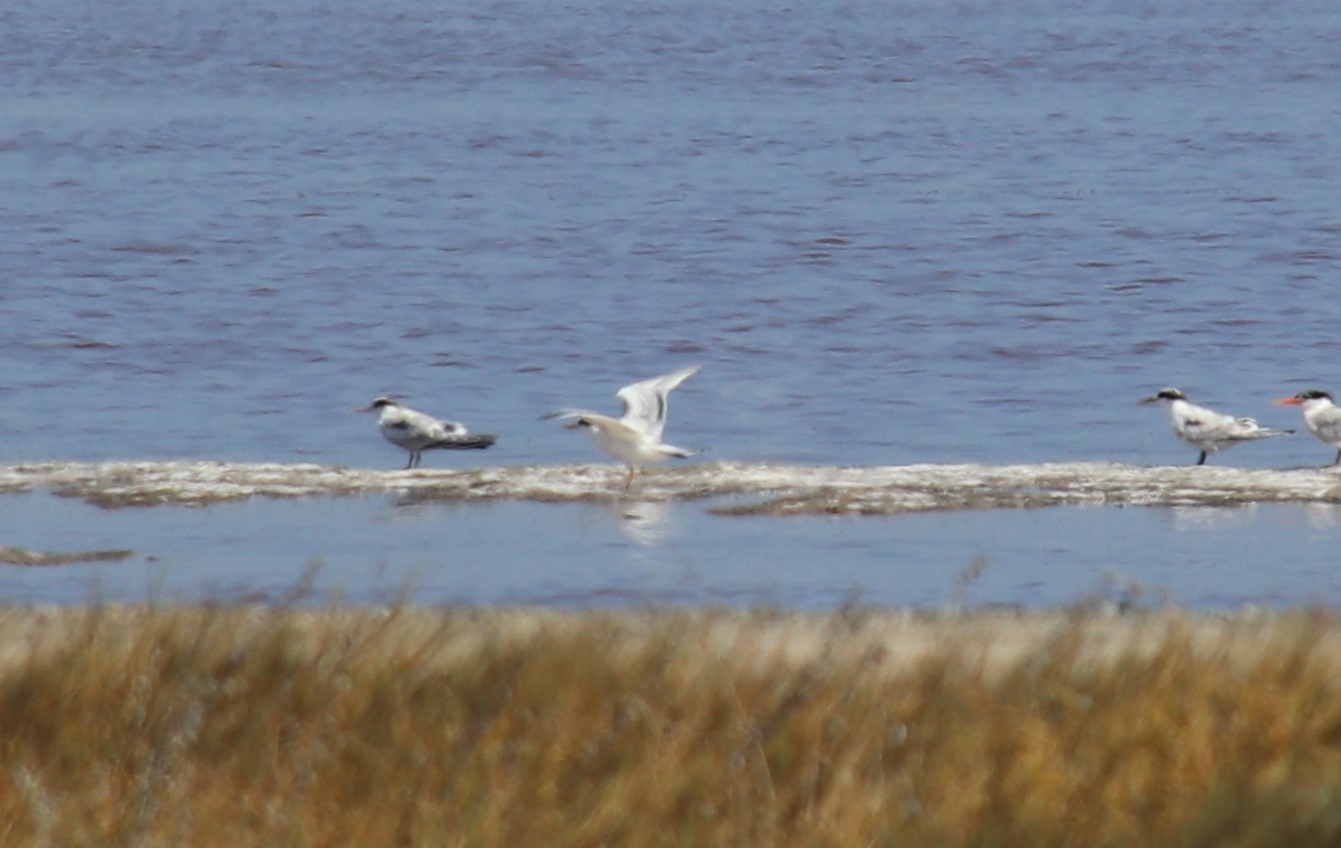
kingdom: Animalia
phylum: Chordata
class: Aves
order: Charadriiformes
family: Laridae
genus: Thalasseus
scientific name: Thalasseus elegans
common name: Elegant tern
